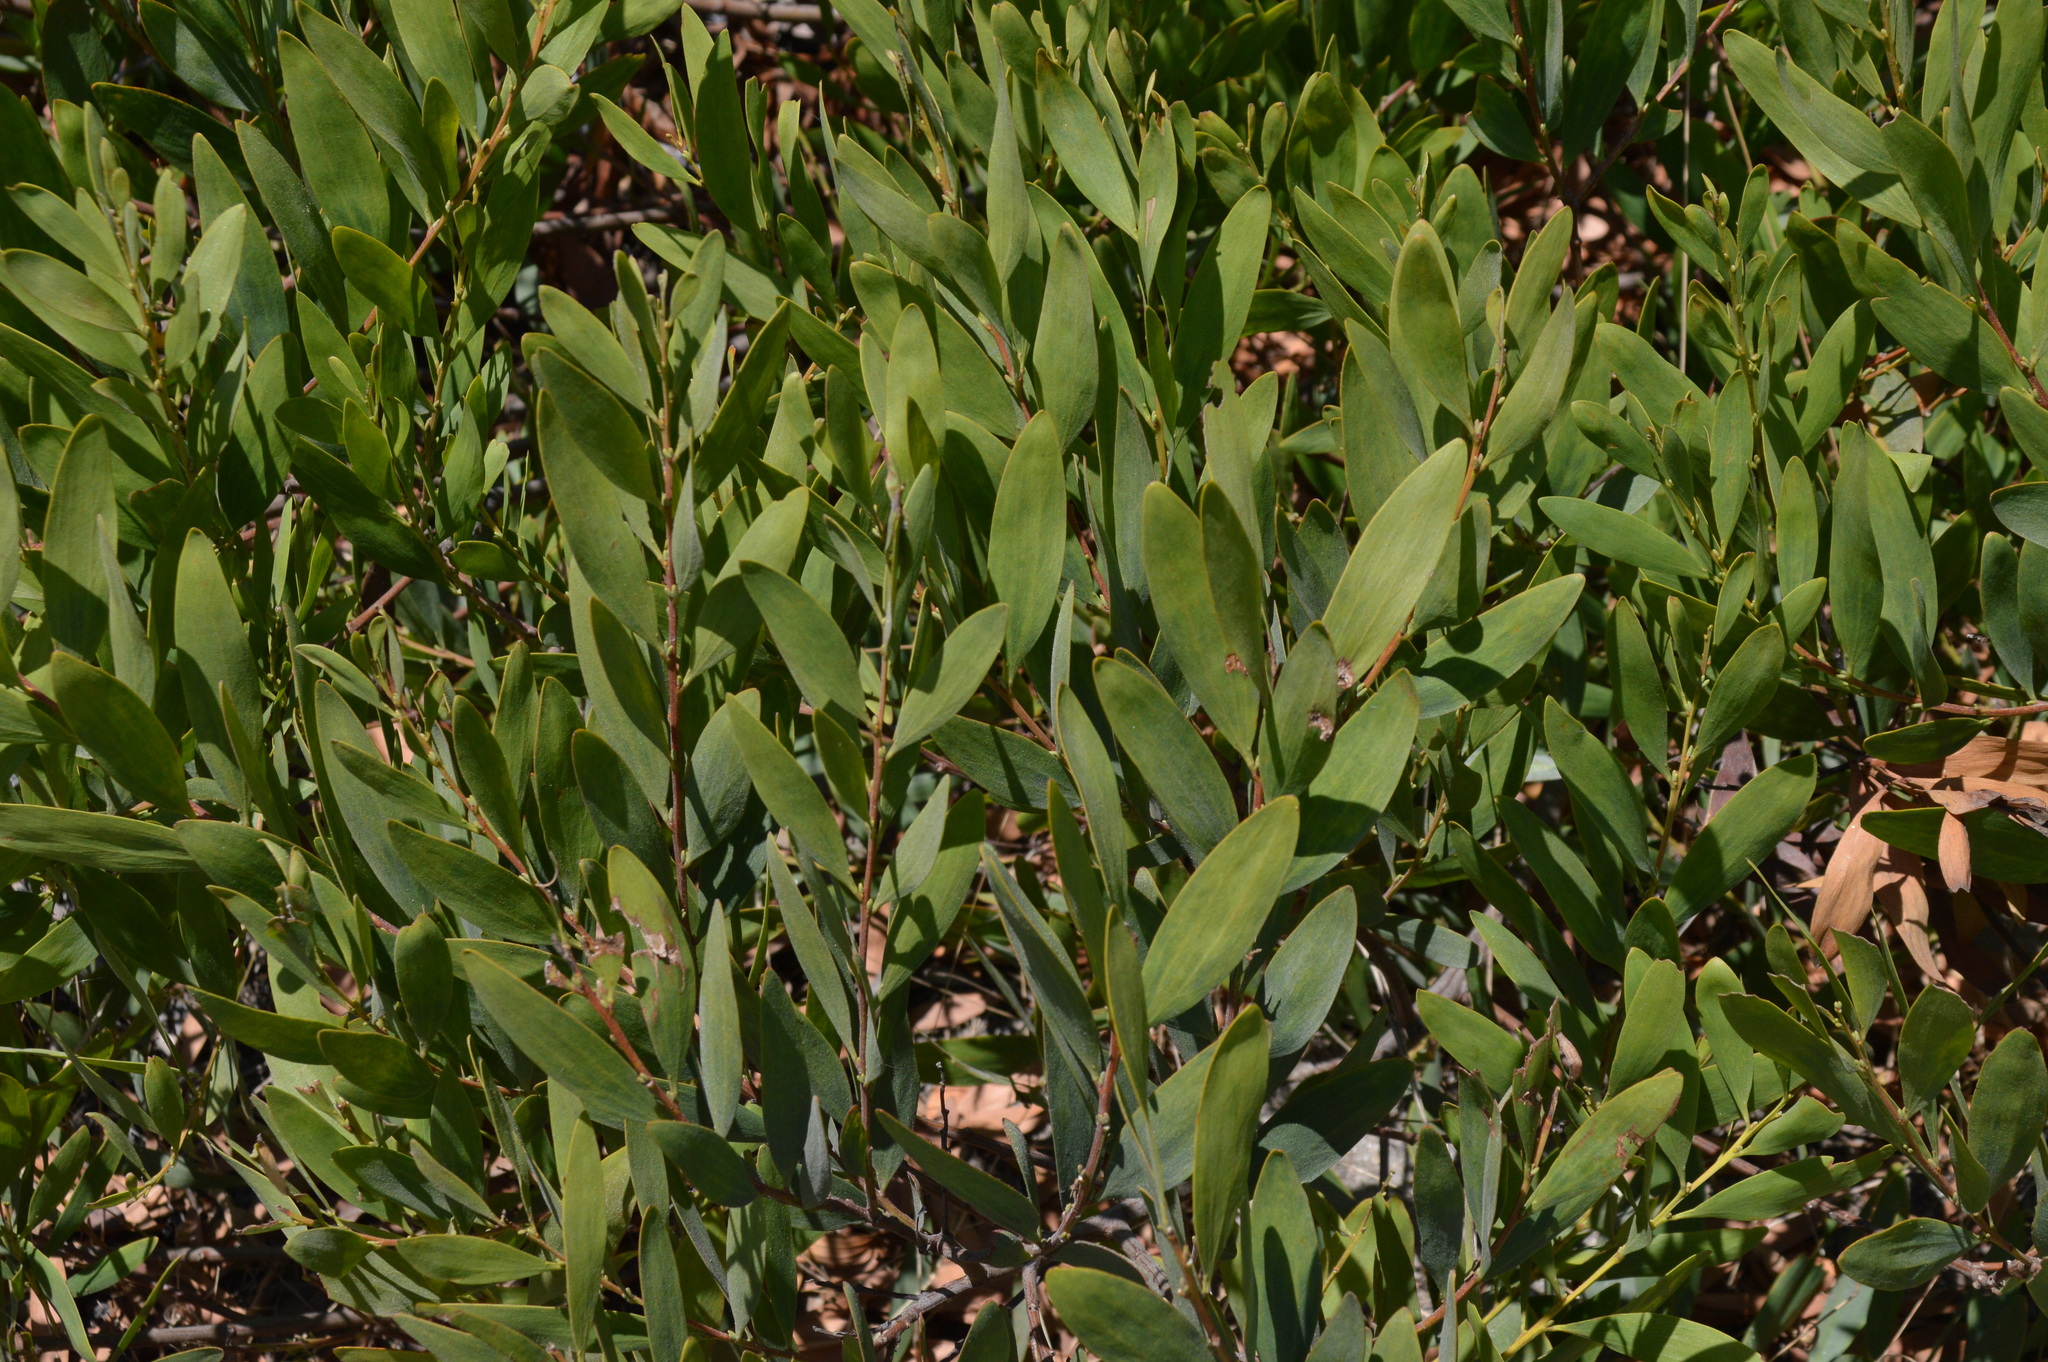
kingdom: Plantae
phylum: Tracheophyta
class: Magnoliopsida
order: Fabales
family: Fabaceae
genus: Acacia
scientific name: Acacia longifolia
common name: Sydney golden wattle
